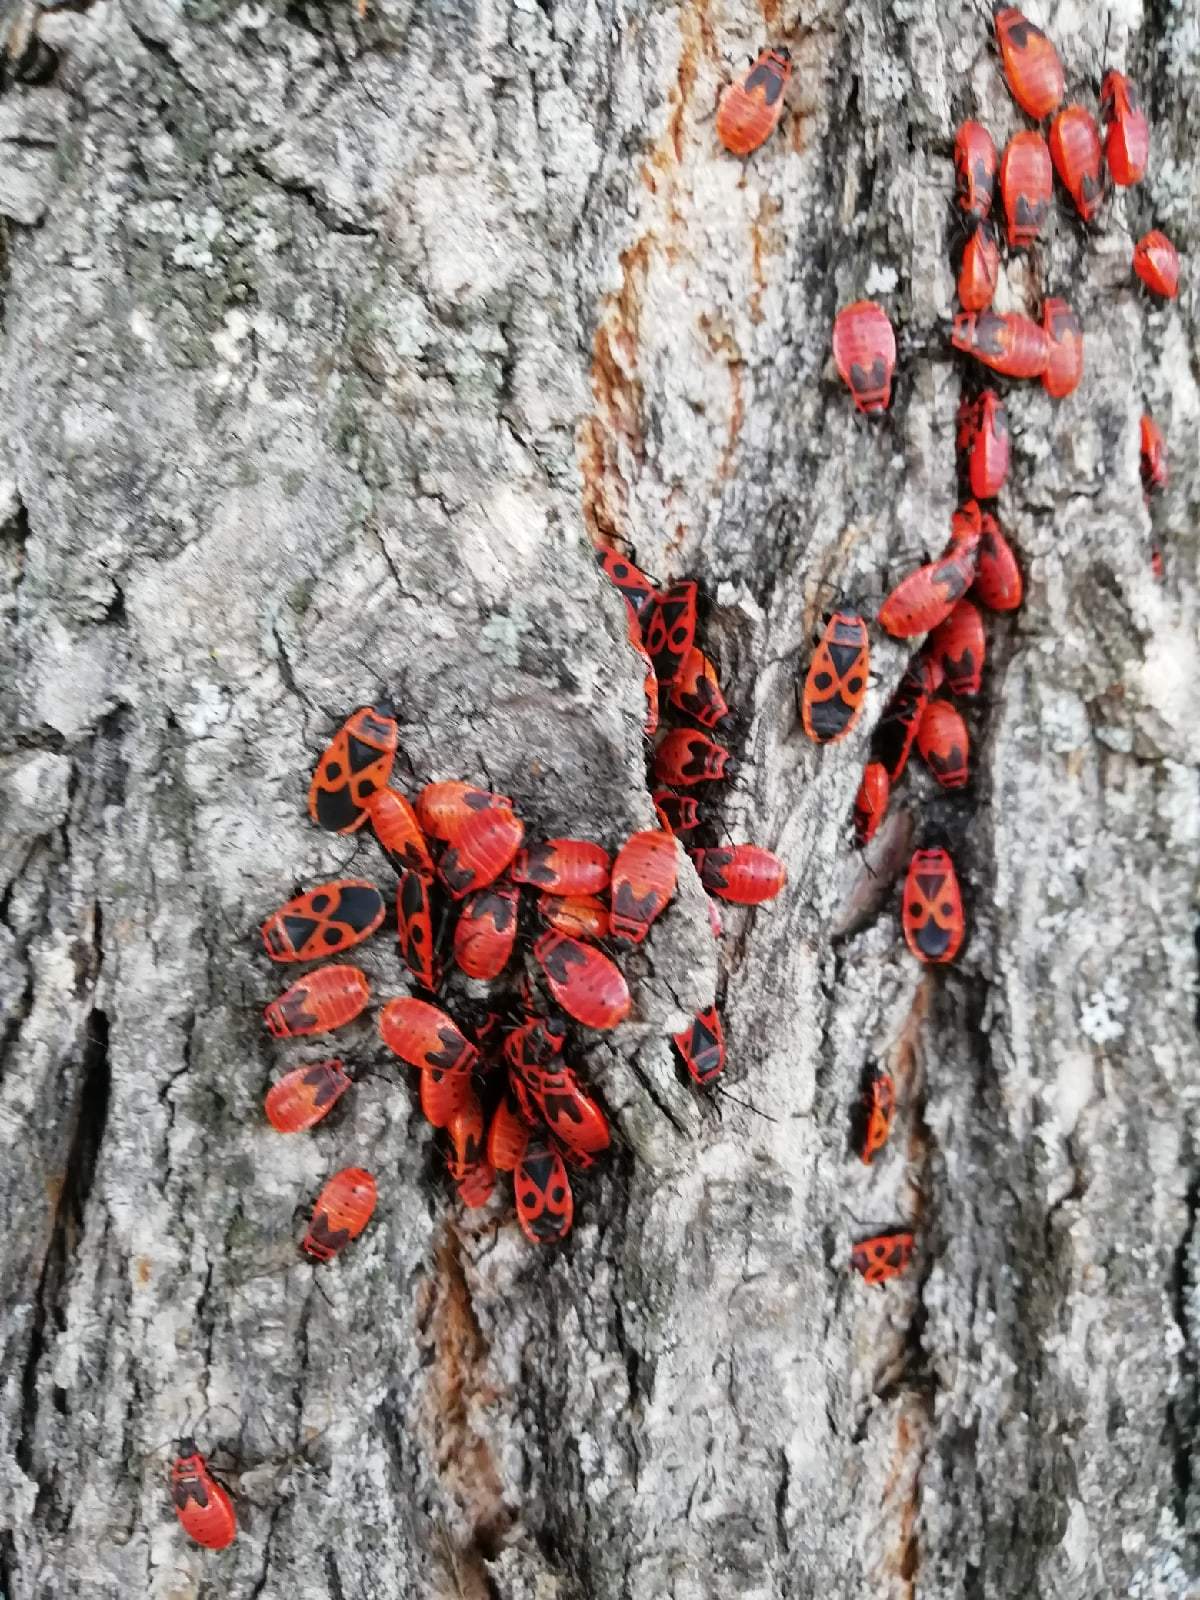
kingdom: Animalia
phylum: Arthropoda
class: Insecta
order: Hemiptera
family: Pyrrhocoridae
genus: Pyrrhocoris
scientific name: Pyrrhocoris apterus
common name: Firebug
